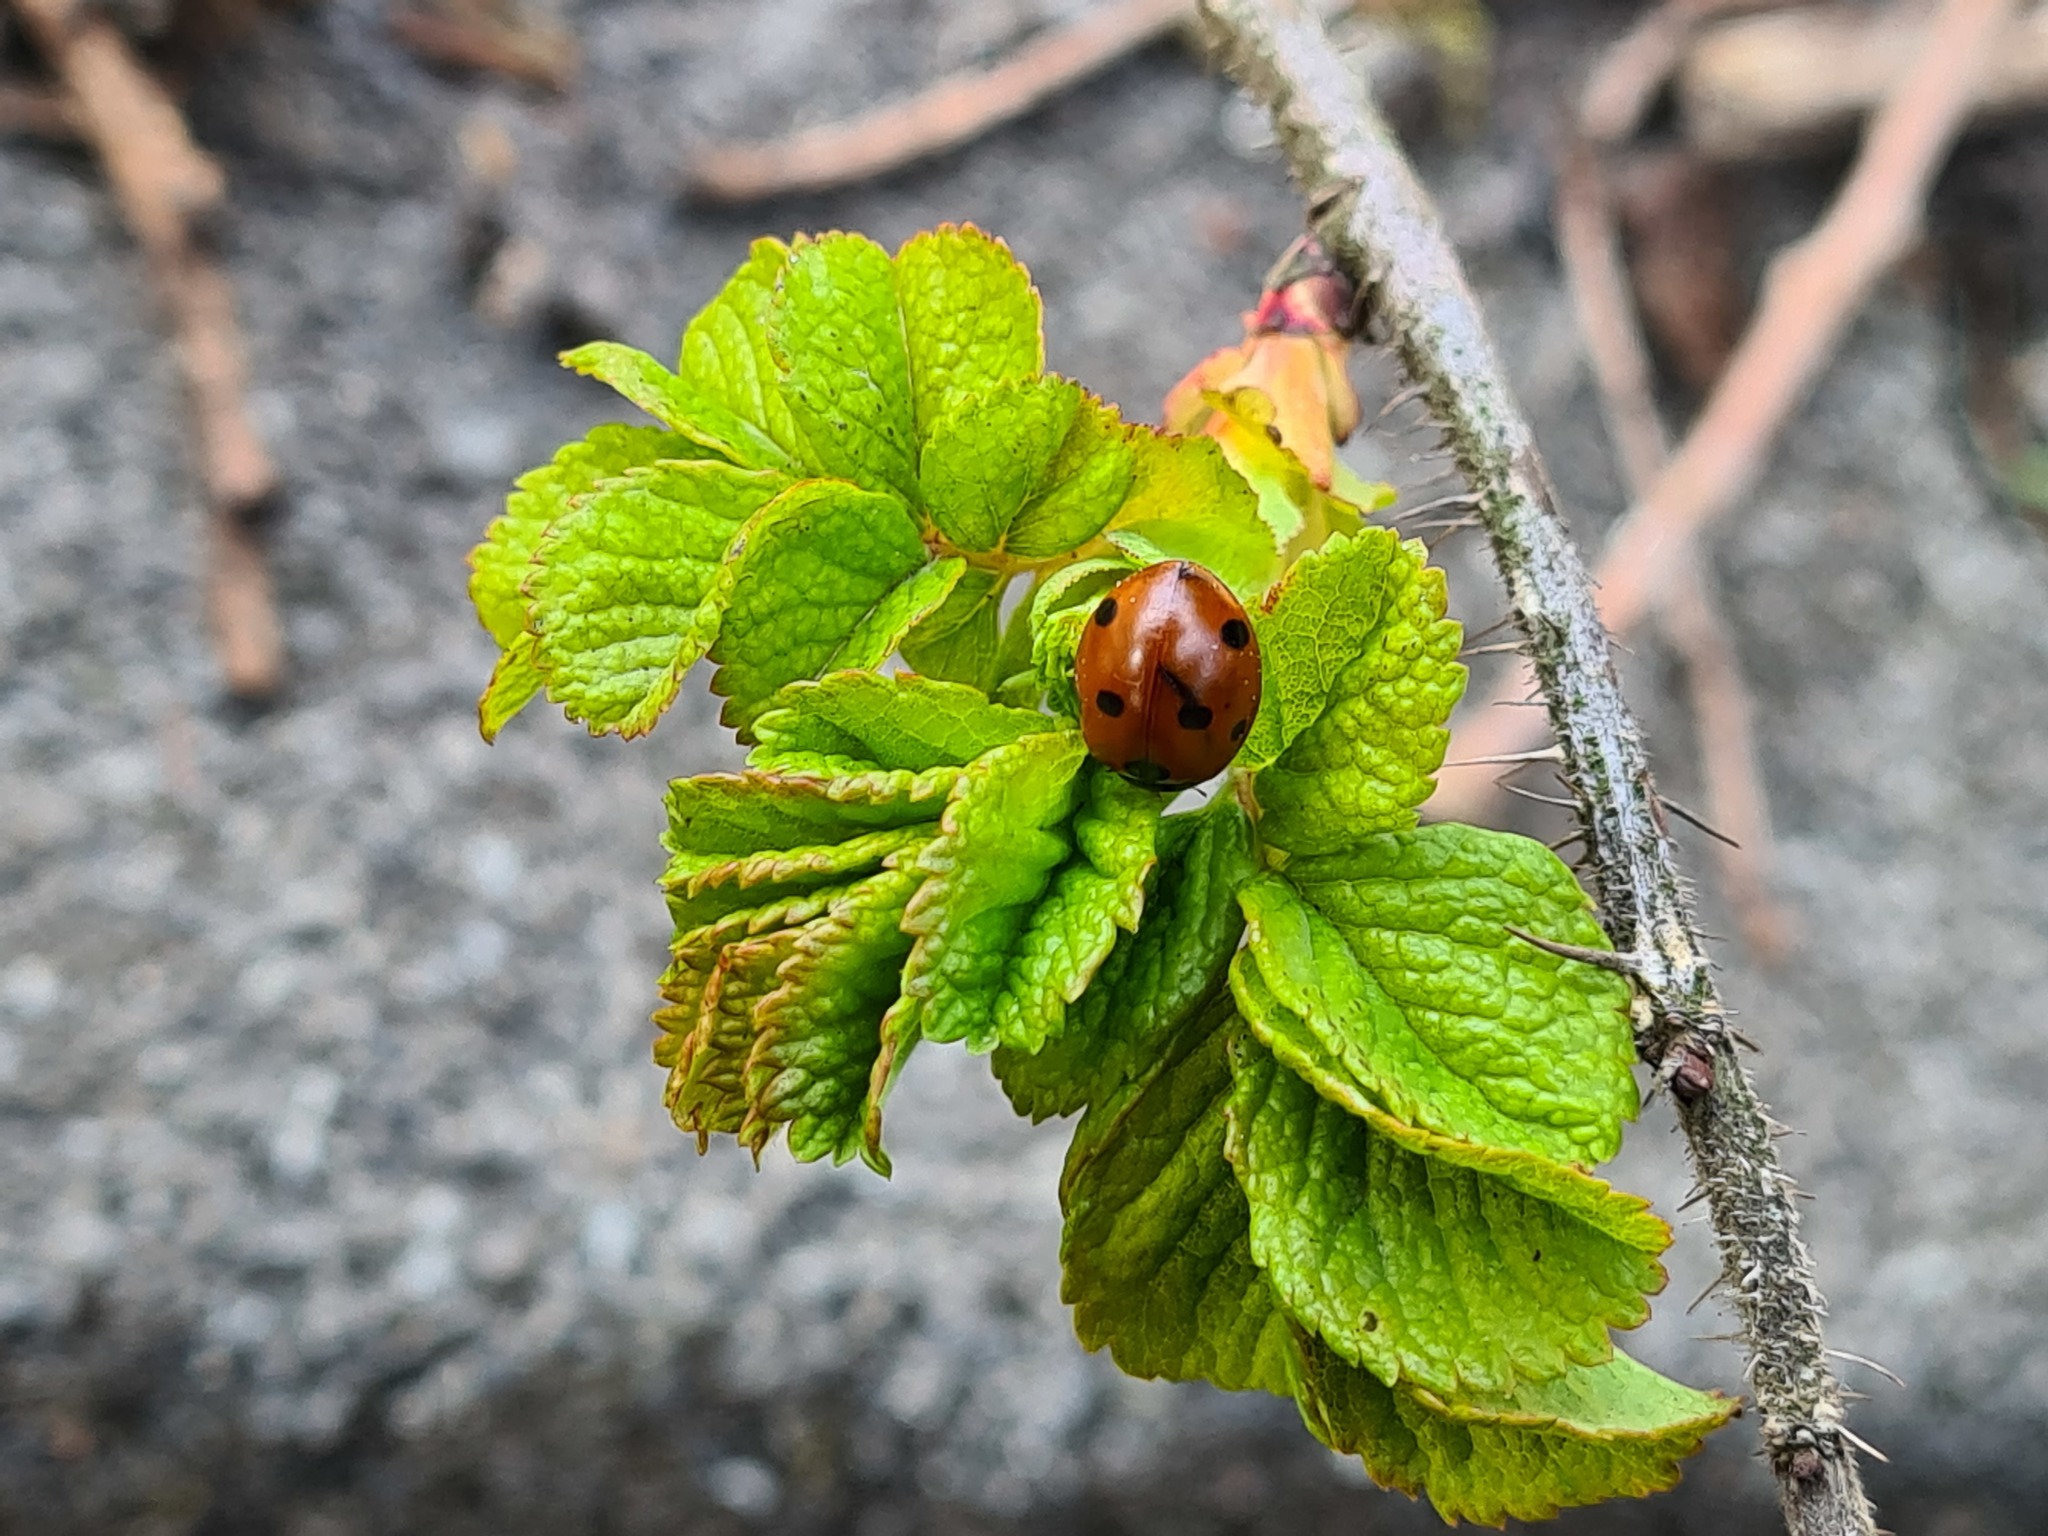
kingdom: Animalia
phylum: Arthropoda
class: Insecta
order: Coleoptera
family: Coccinellidae
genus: Coccinella
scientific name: Coccinella septempunctata
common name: Sevenspotted lady beetle
